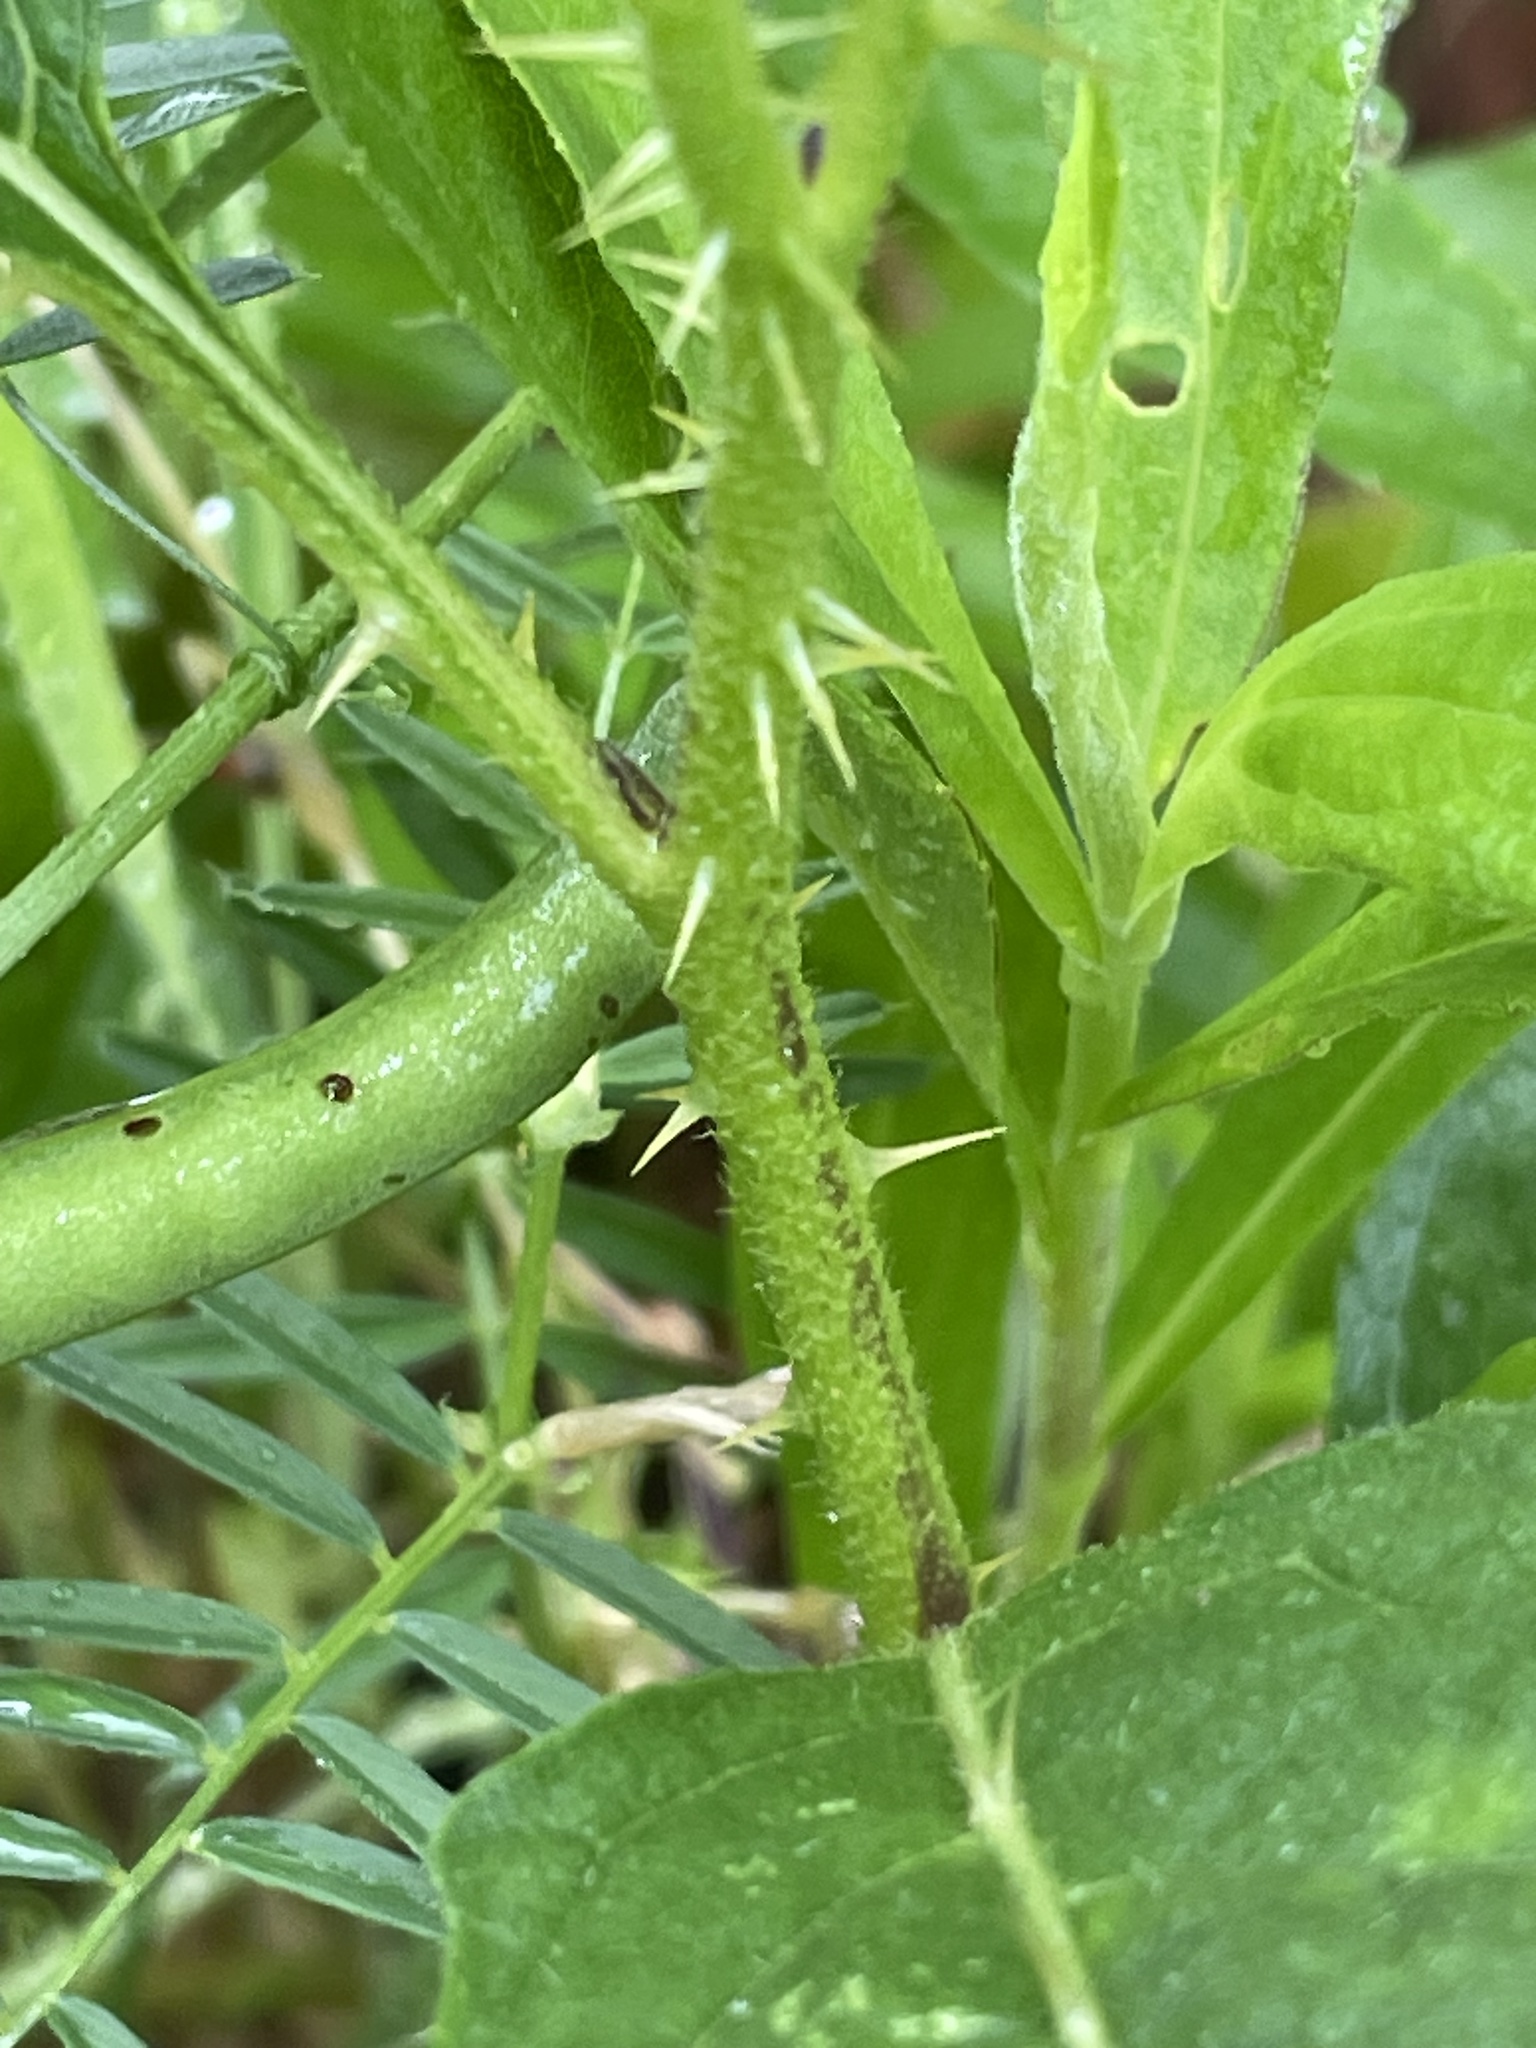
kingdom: Plantae
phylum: Tracheophyta
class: Magnoliopsida
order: Solanales
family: Solanaceae
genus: Solanum
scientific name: Solanum carolinense
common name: Horse-nettle
